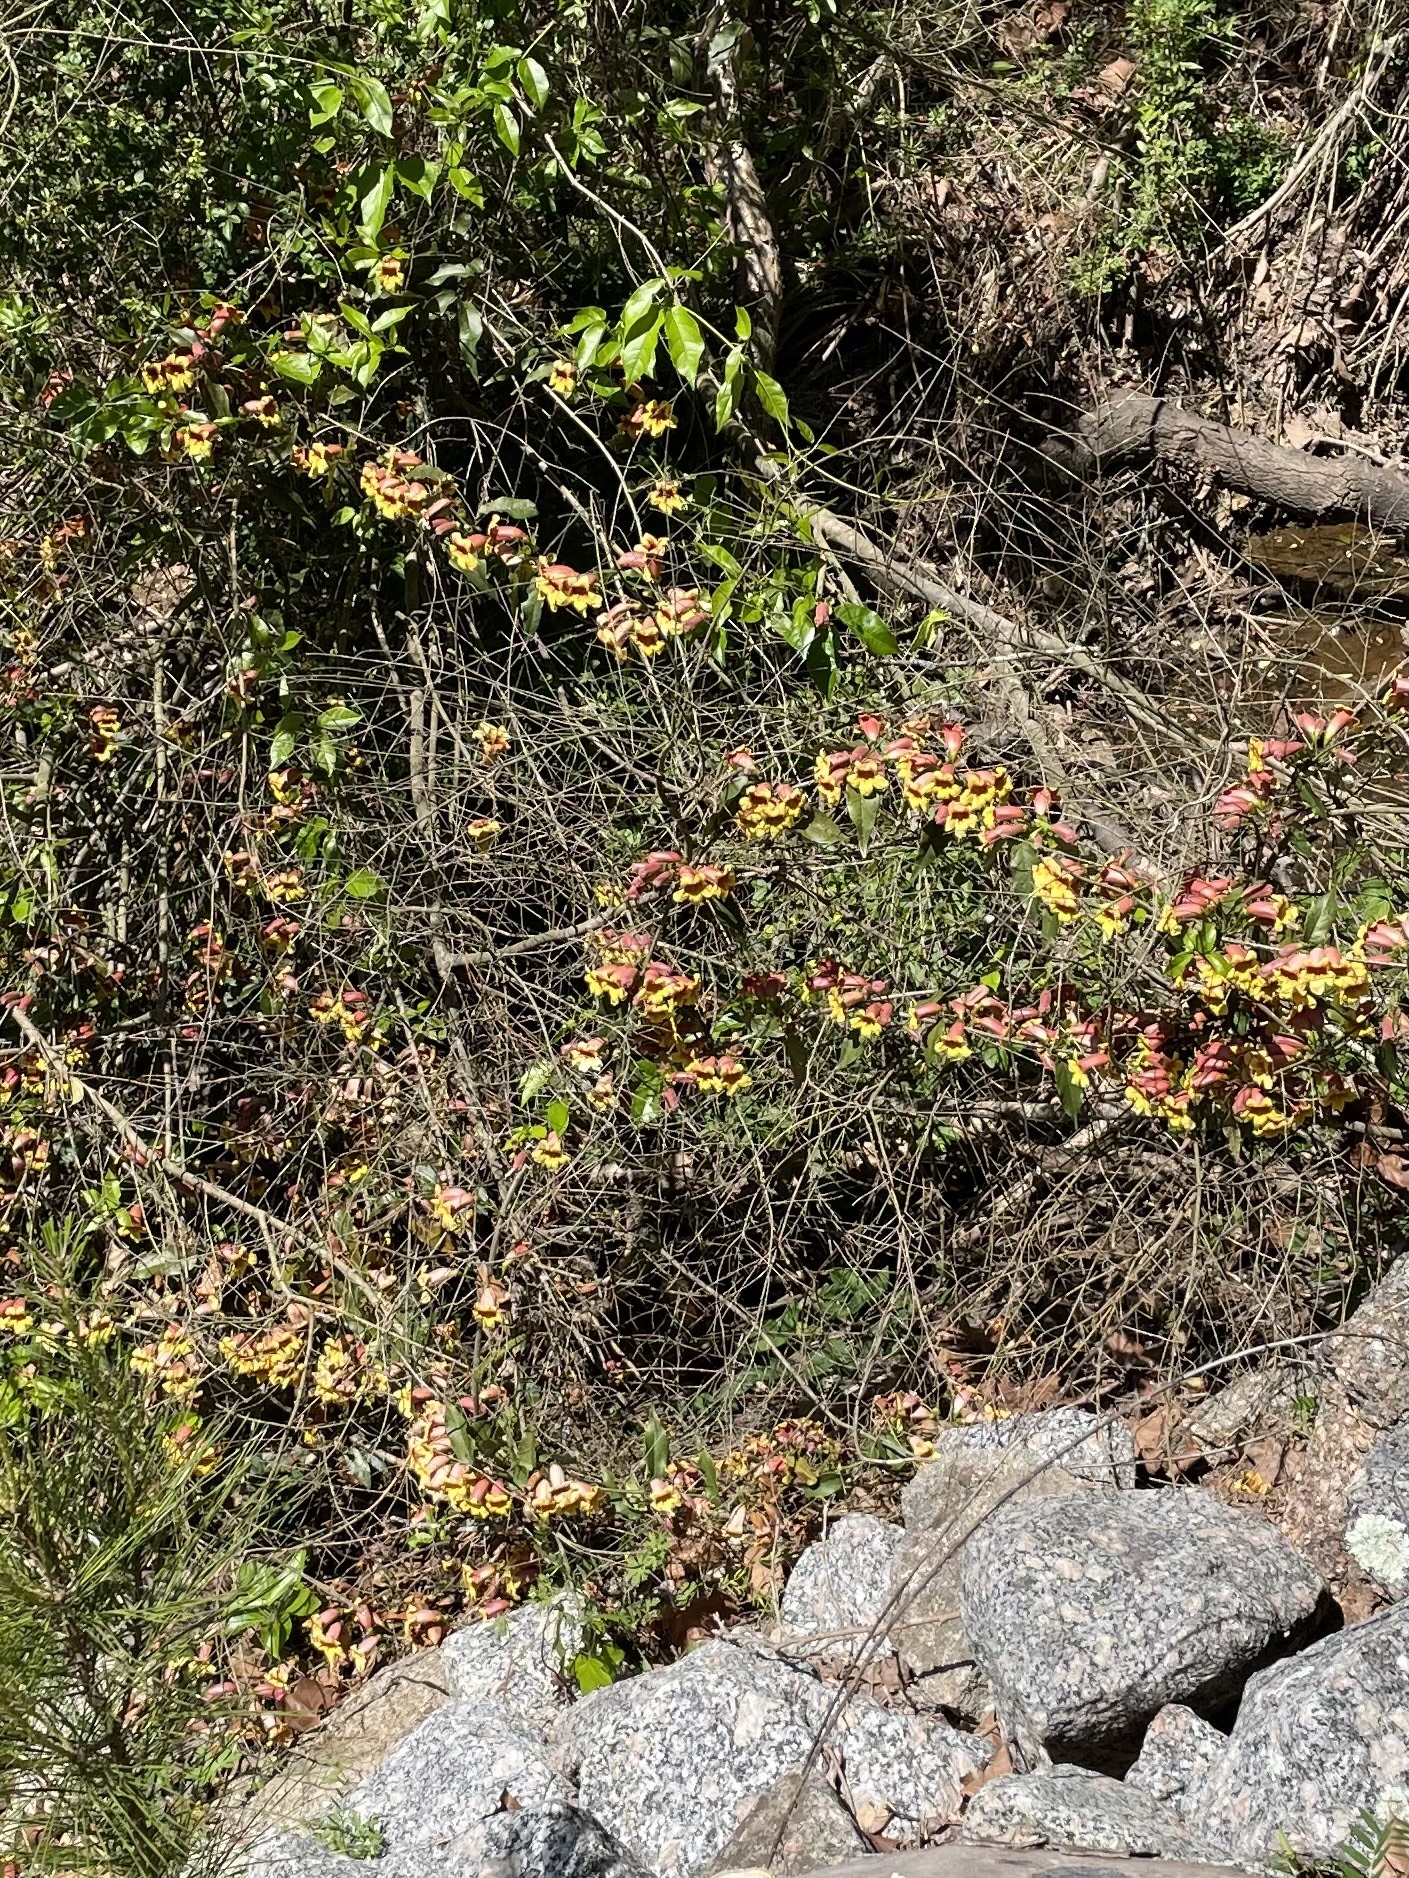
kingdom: Plantae
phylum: Tracheophyta
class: Magnoliopsida
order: Lamiales
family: Bignoniaceae
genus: Bignonia
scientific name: Bignonia capreolata
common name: Crossvine
